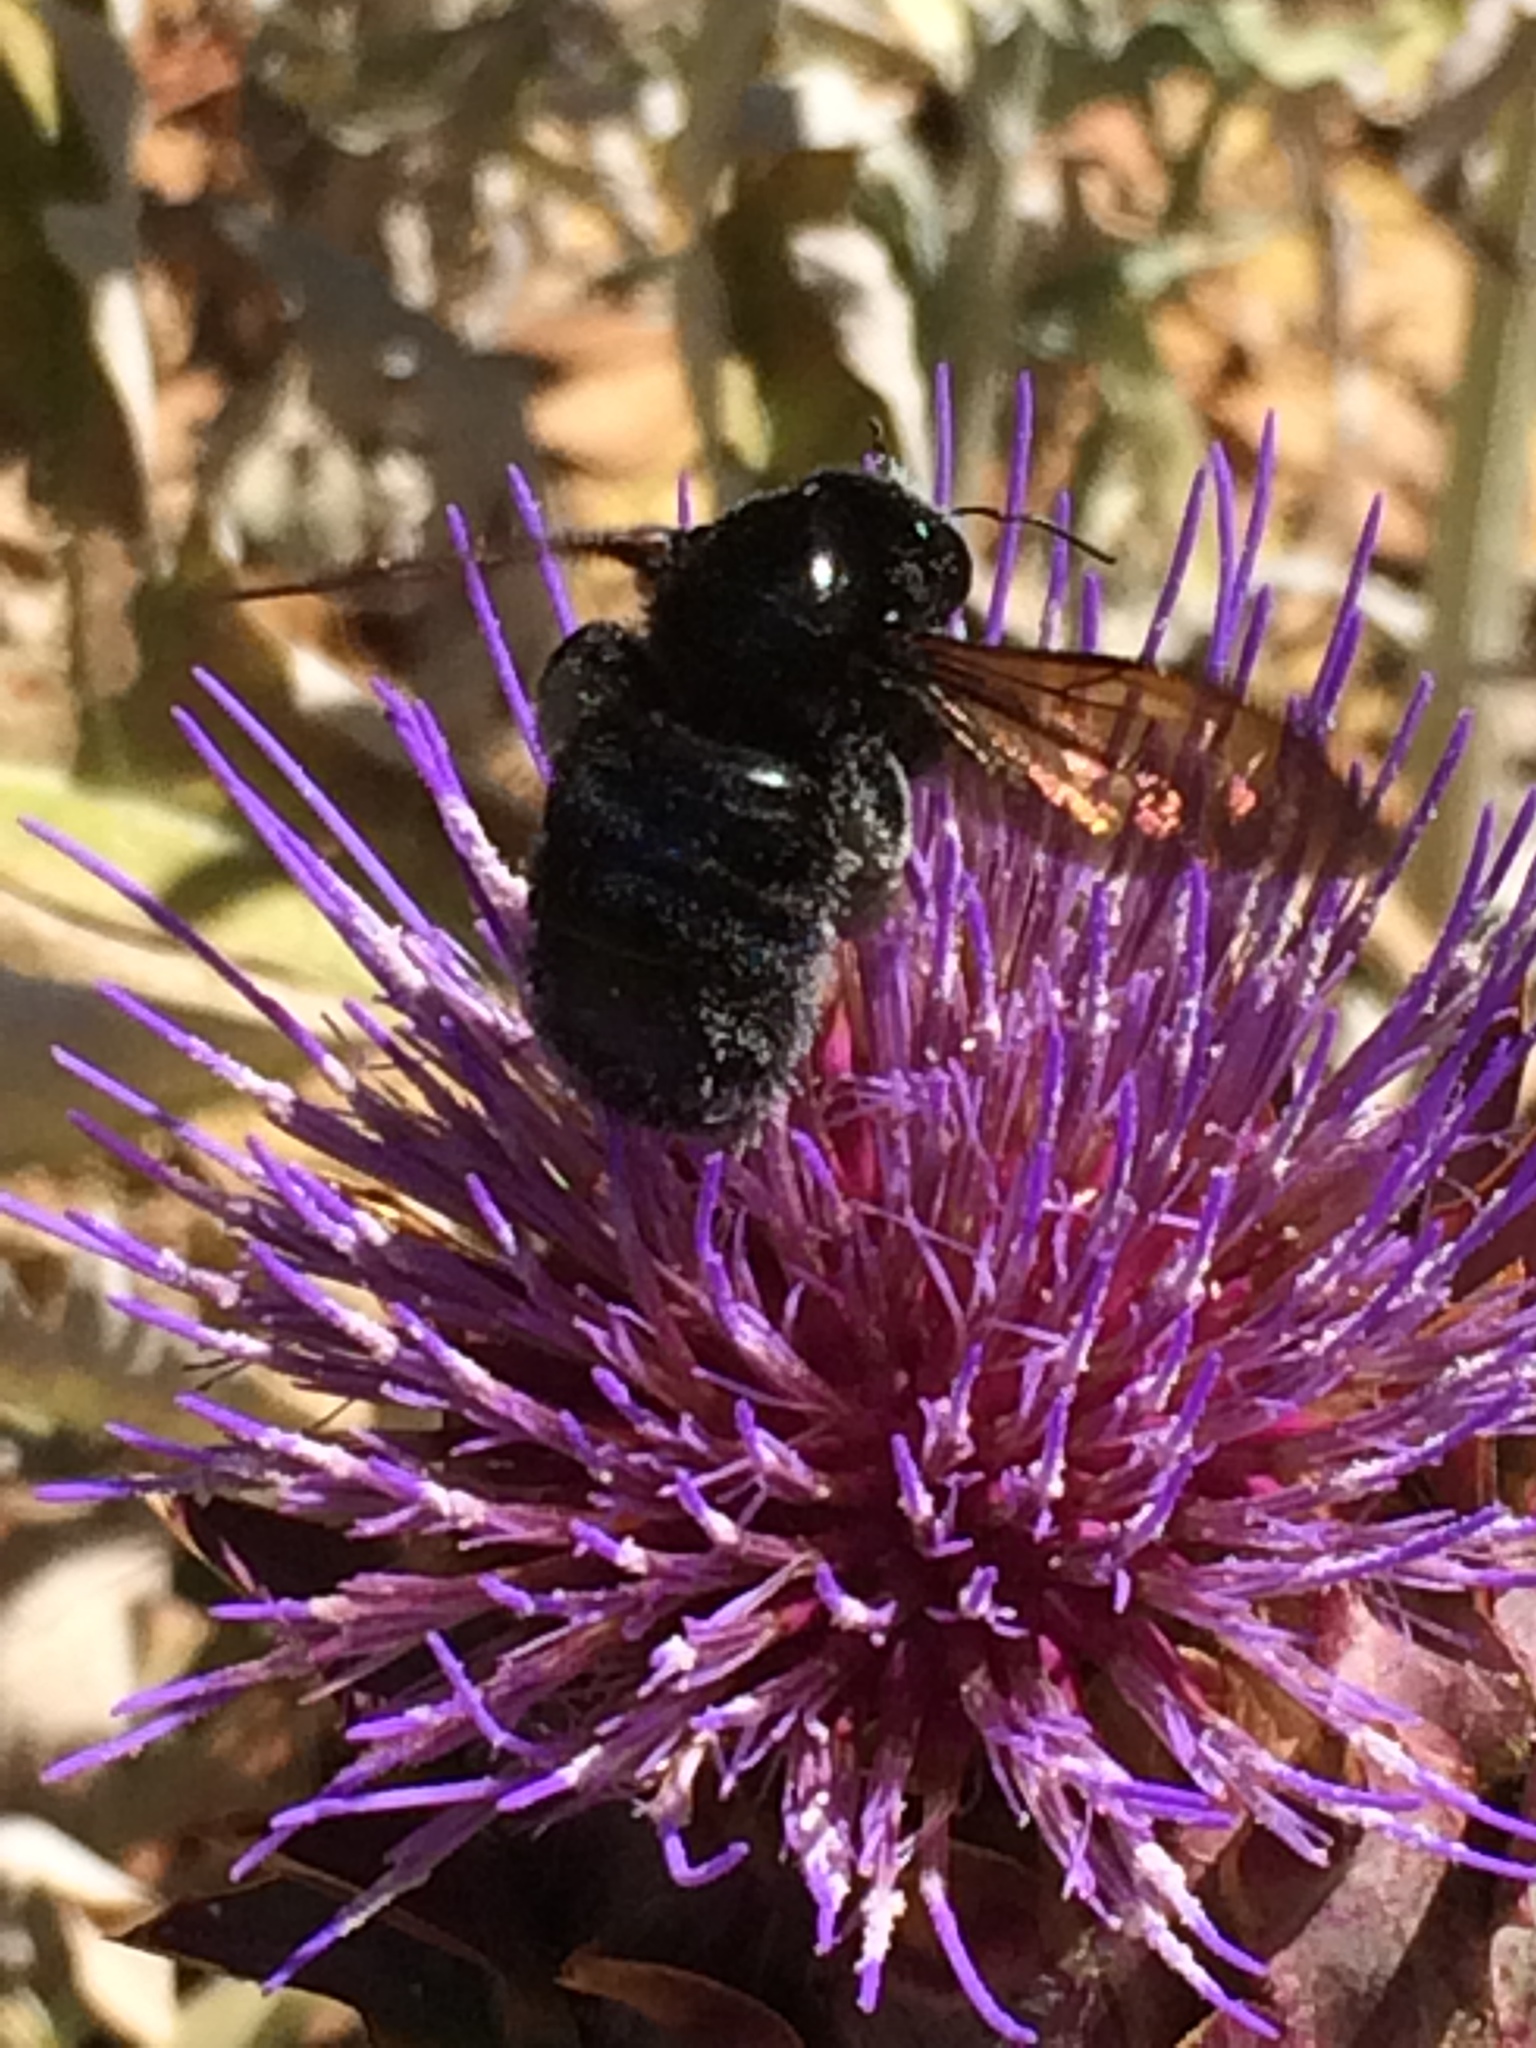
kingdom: Animalia
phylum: Arthropoda
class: Insecta
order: Hymenoptera
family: Apidae
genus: Xylocopa
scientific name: Xylocopa sonorina
